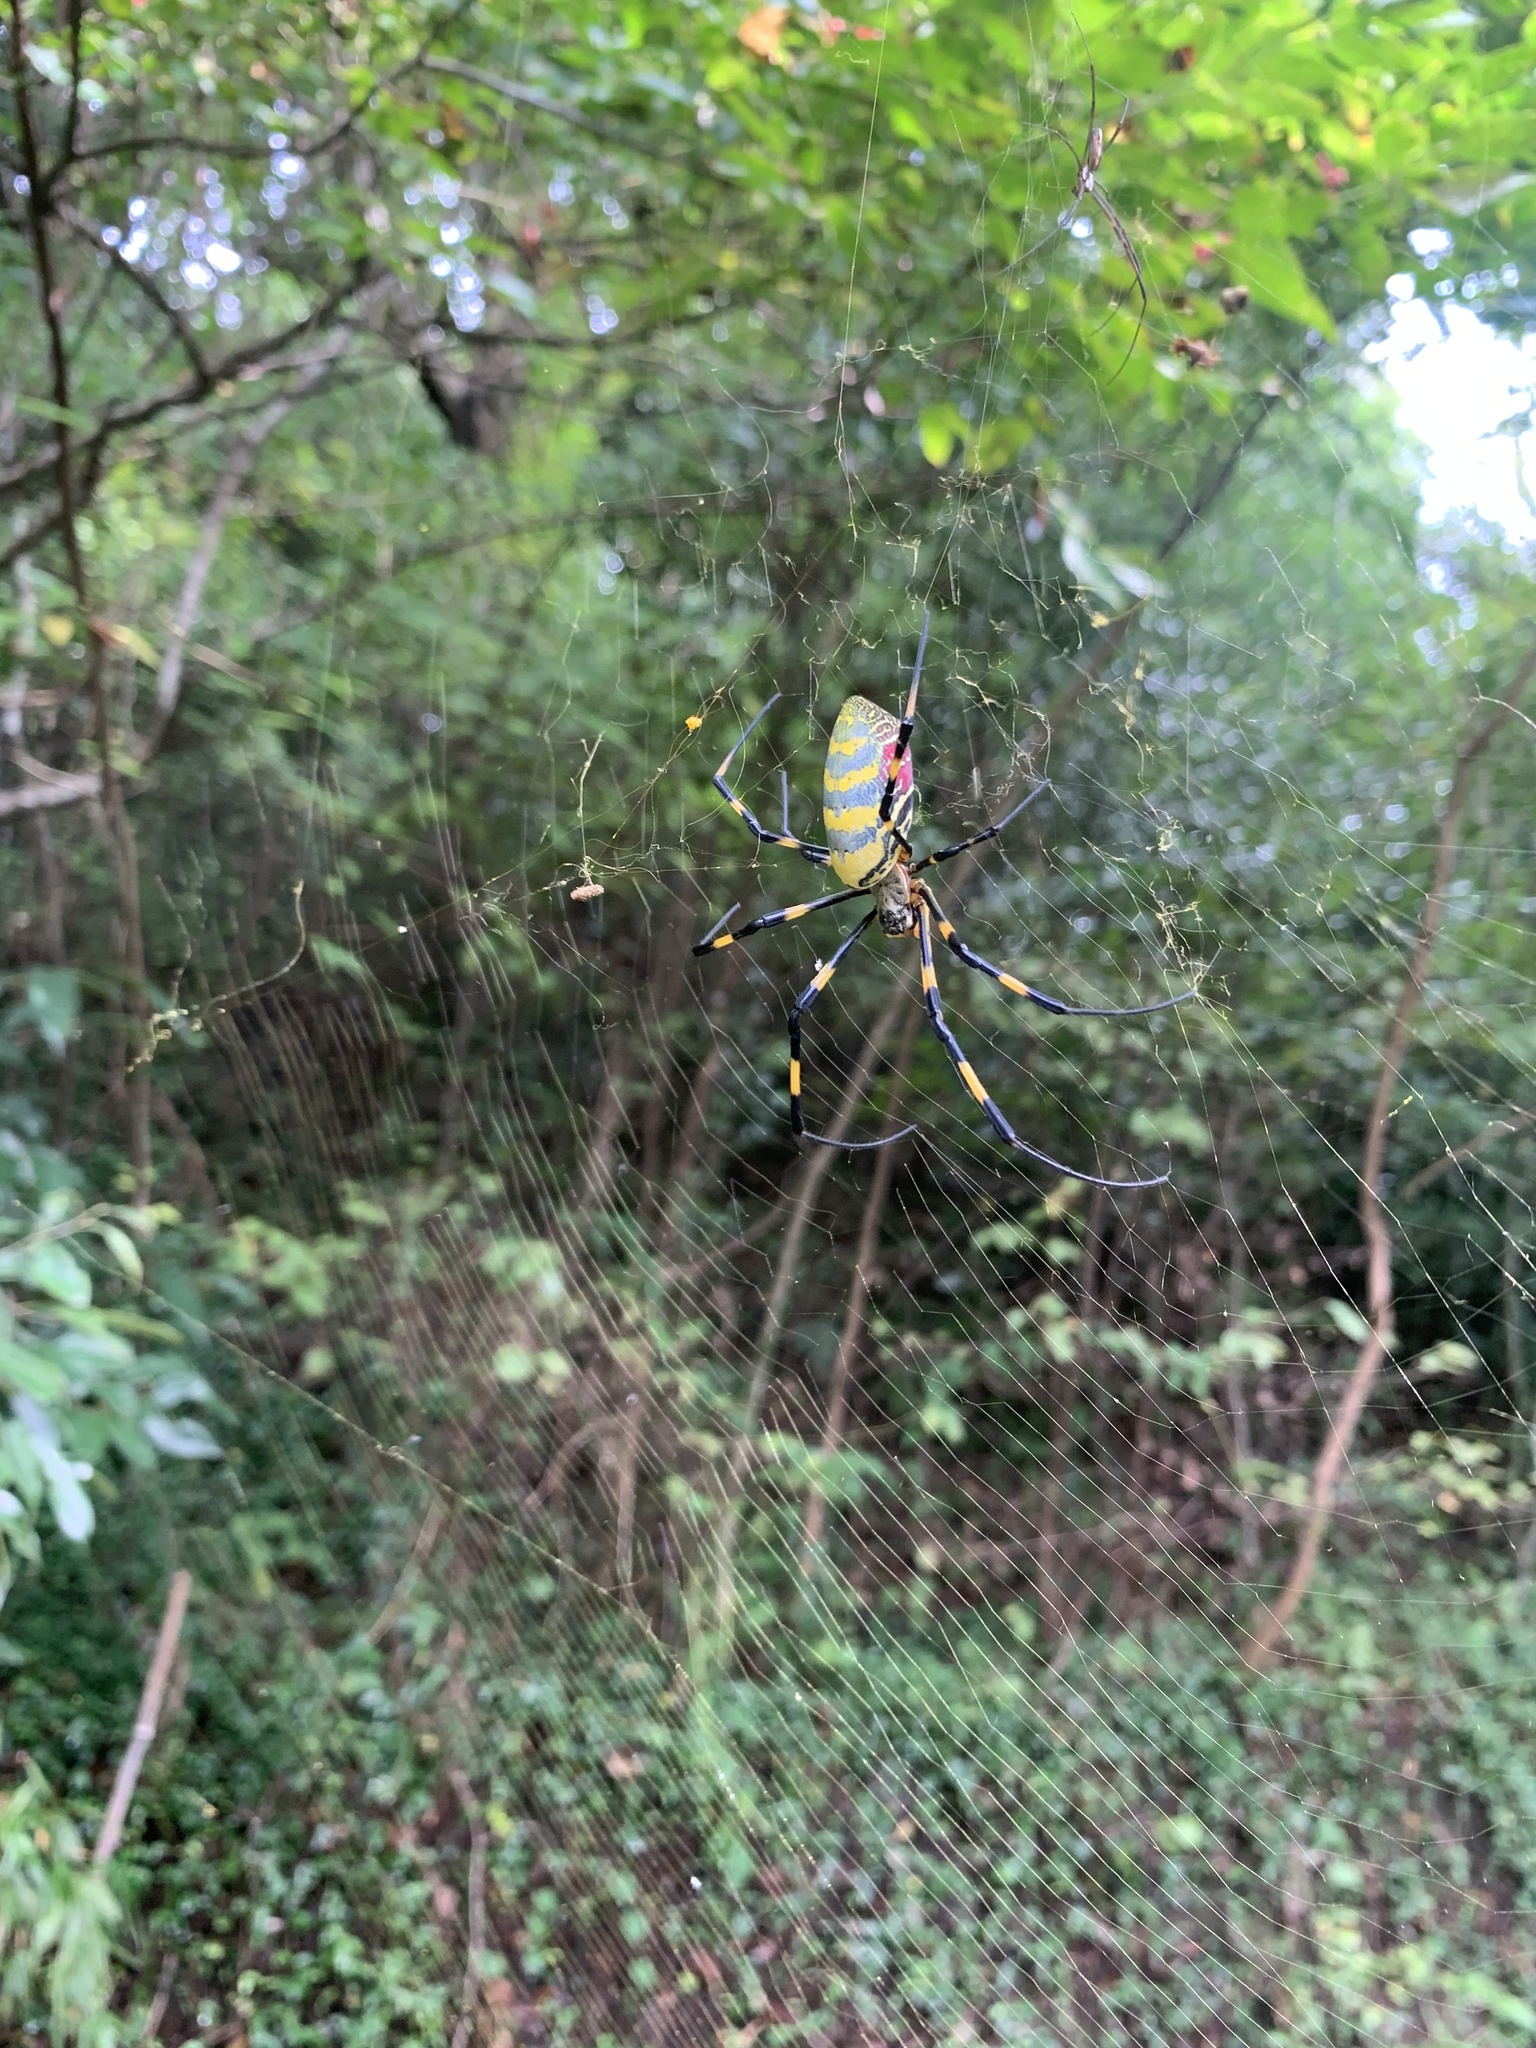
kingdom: Animalia
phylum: Arthropoda
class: Arachnida
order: Araneae
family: Araneidae
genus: Trichonephila
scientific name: Trichonephila clavata
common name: Jorō spider
